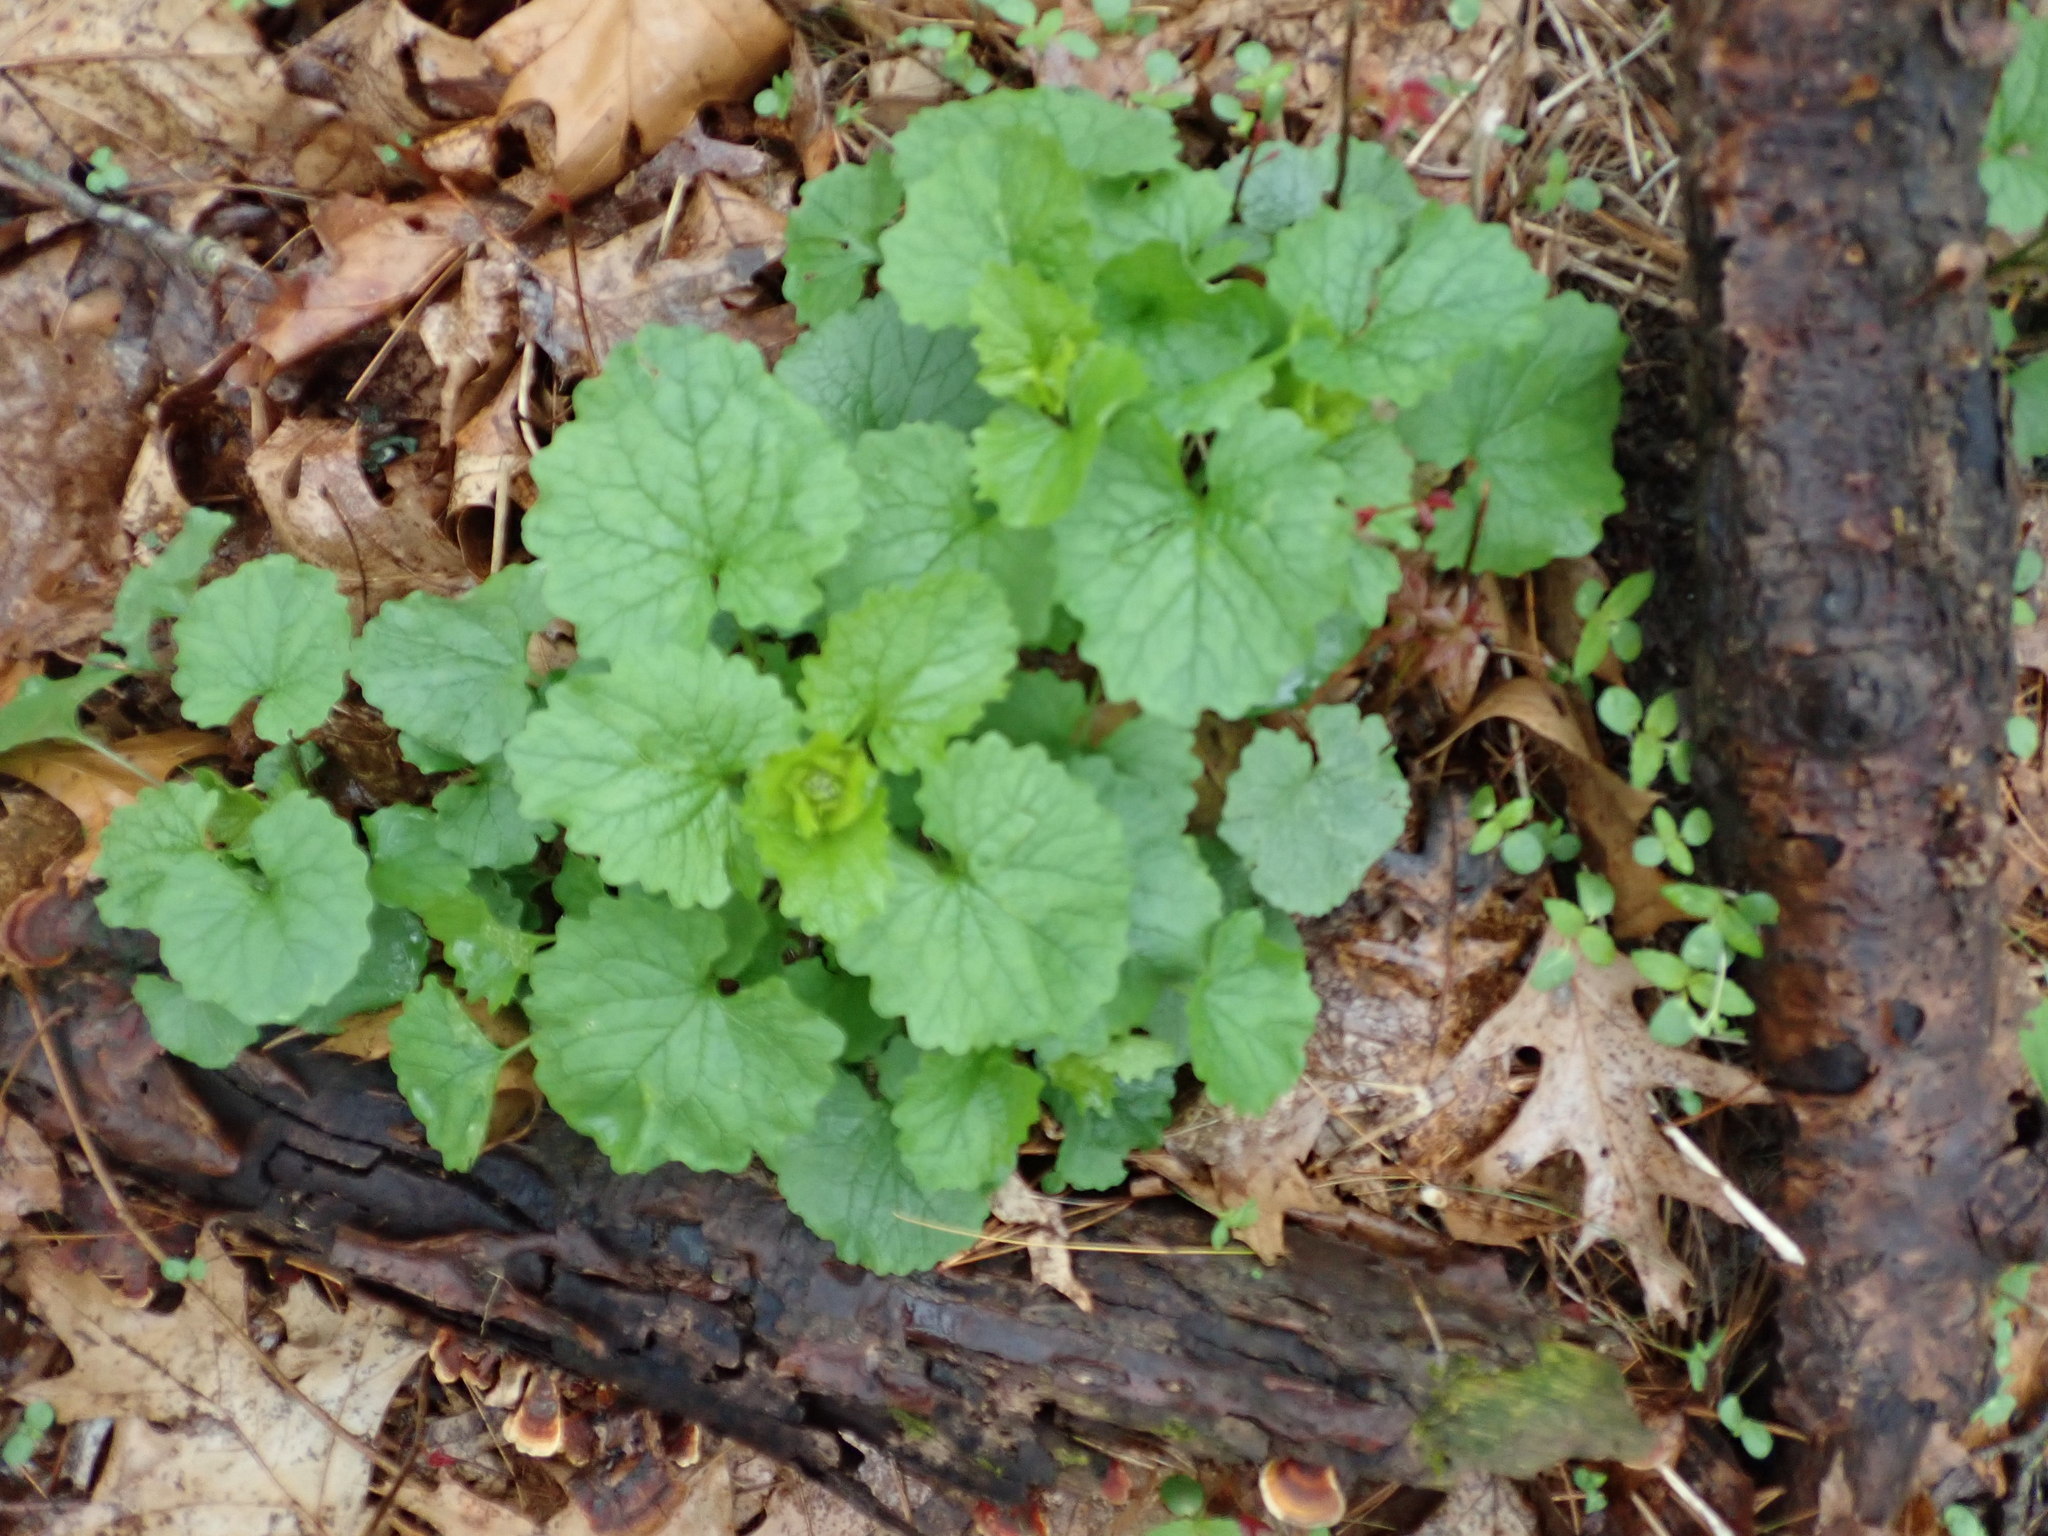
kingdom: Plantae
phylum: Tracheophyta
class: Magnoliopsida
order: Brassicales
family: Brassicaceae
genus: Alliaria
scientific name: Alliaria petiolata
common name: Garlic mustard
